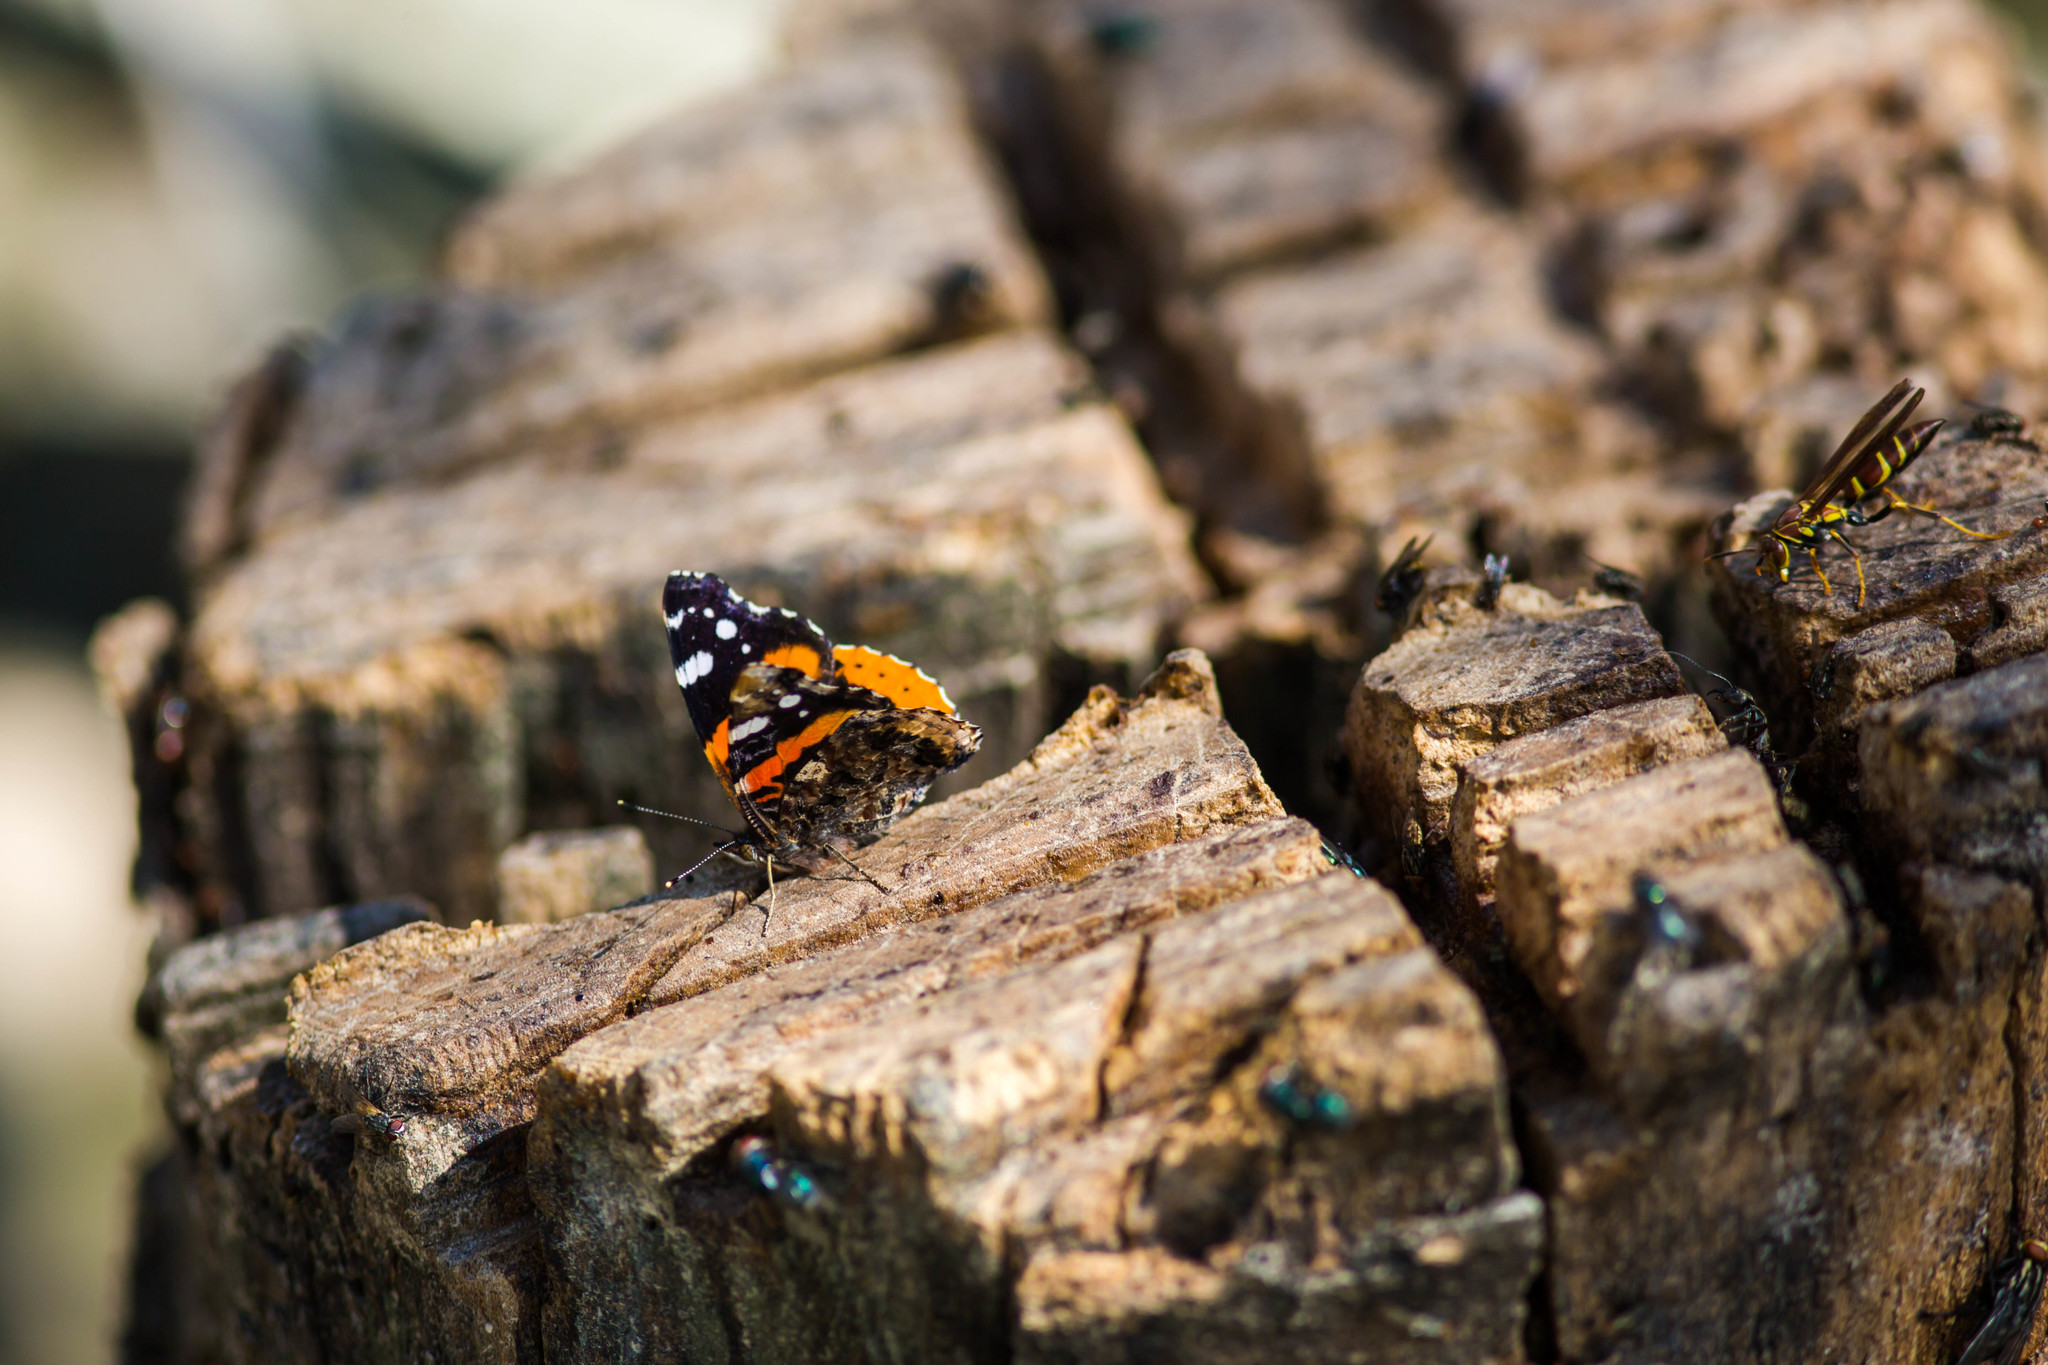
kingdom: Animalia
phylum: Arthropoda
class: Insecta
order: Lepidoptera
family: Nymphalidae
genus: Vanessa
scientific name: Vanessa atalanta
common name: Red admiral
